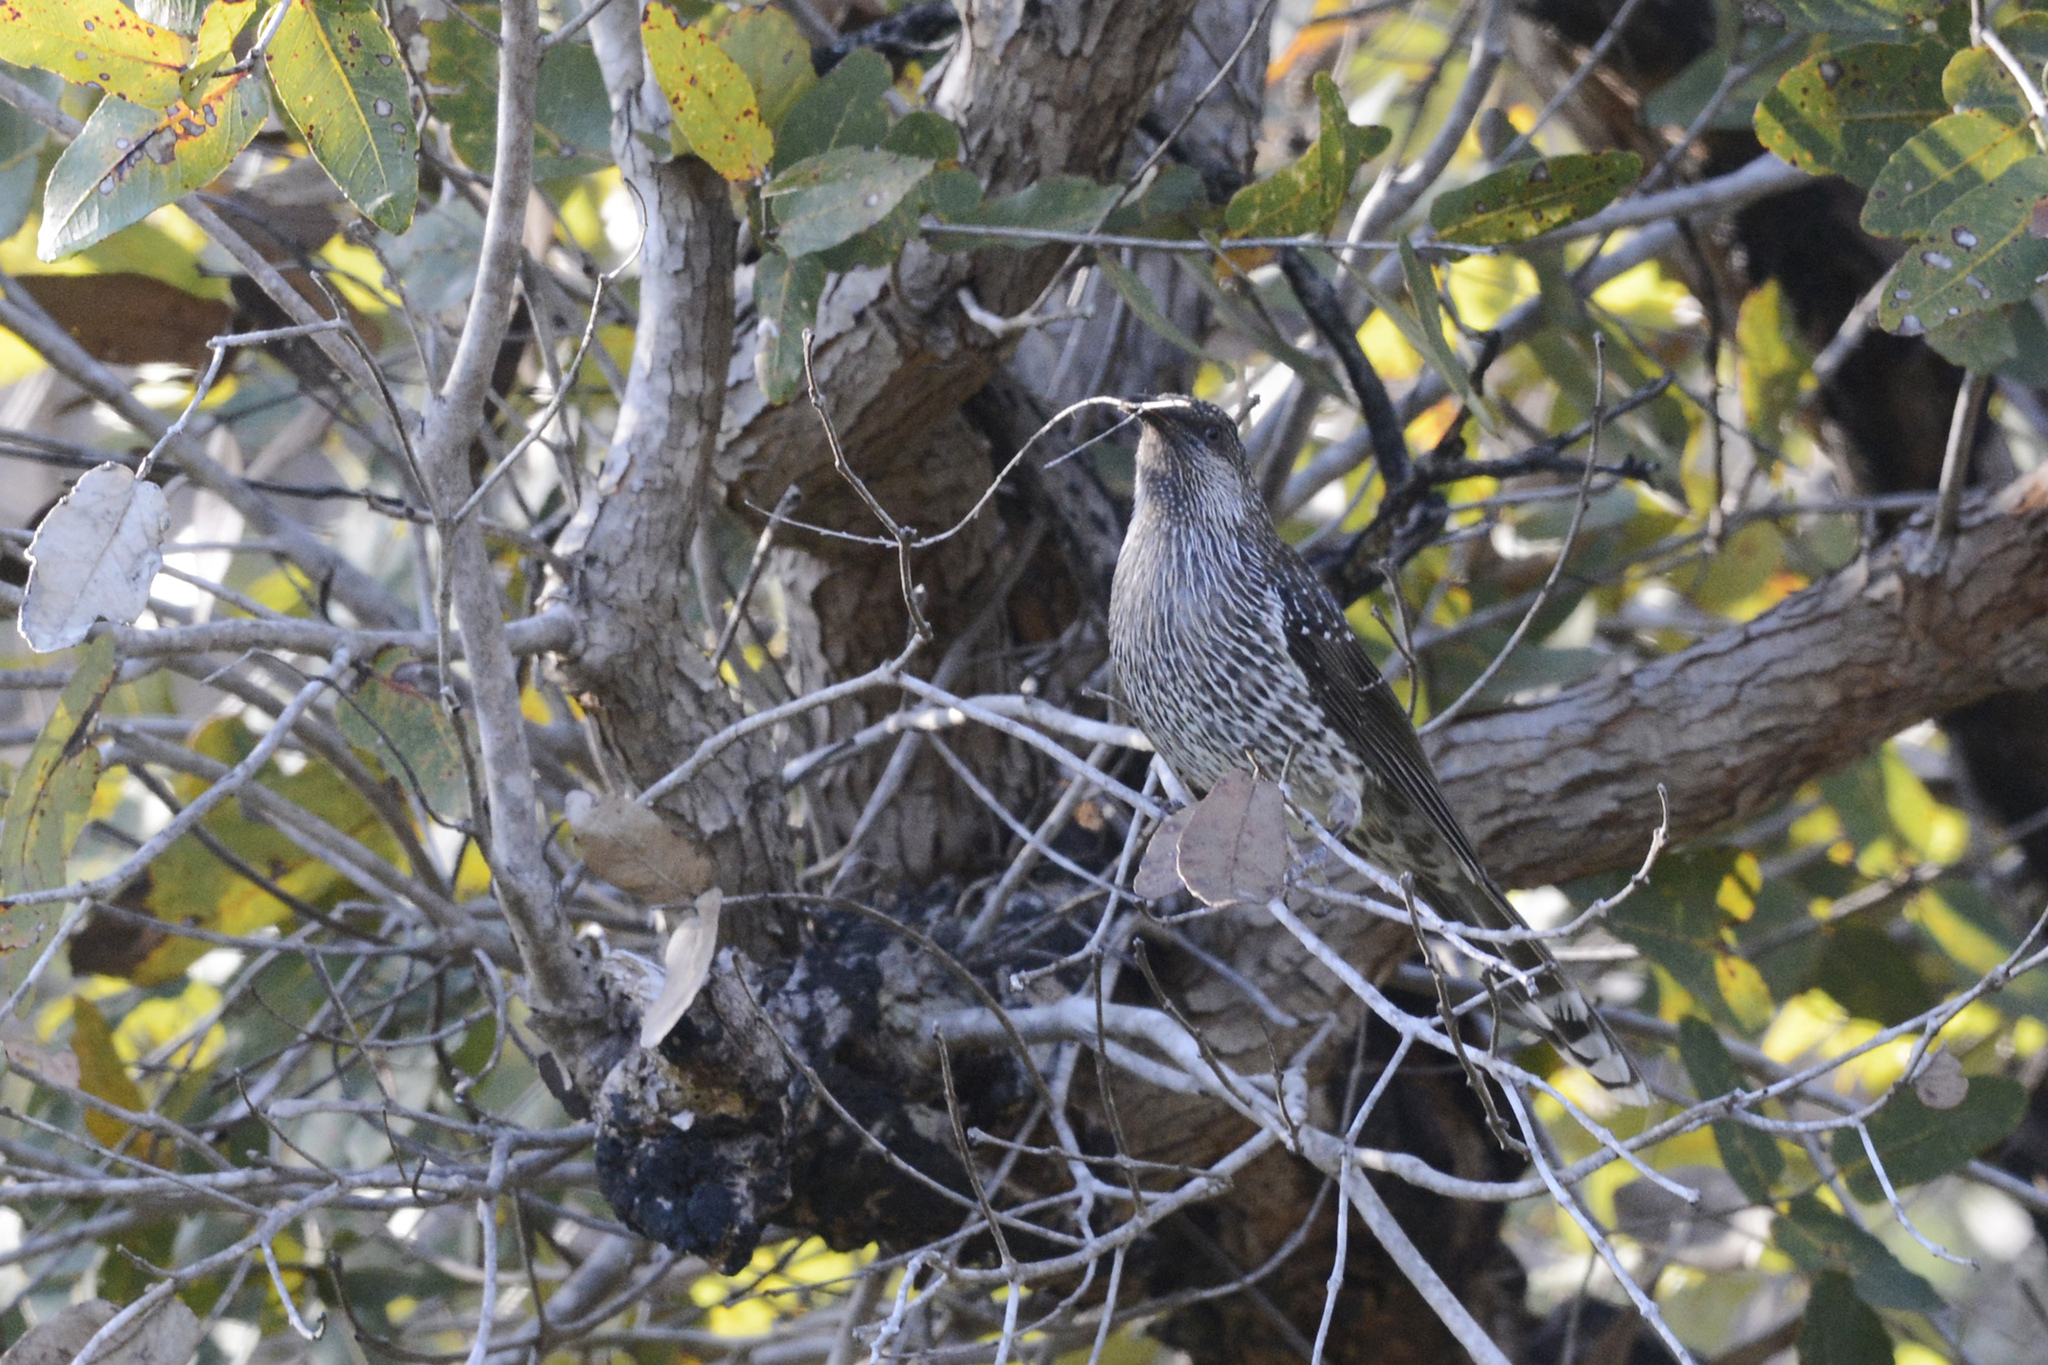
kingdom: Animalia
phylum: Chordata
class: Aves
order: Passeriformes
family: Meliphagidae
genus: Anthochaera
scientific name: Anthochaera chrysoptera
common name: Little wattlebird
